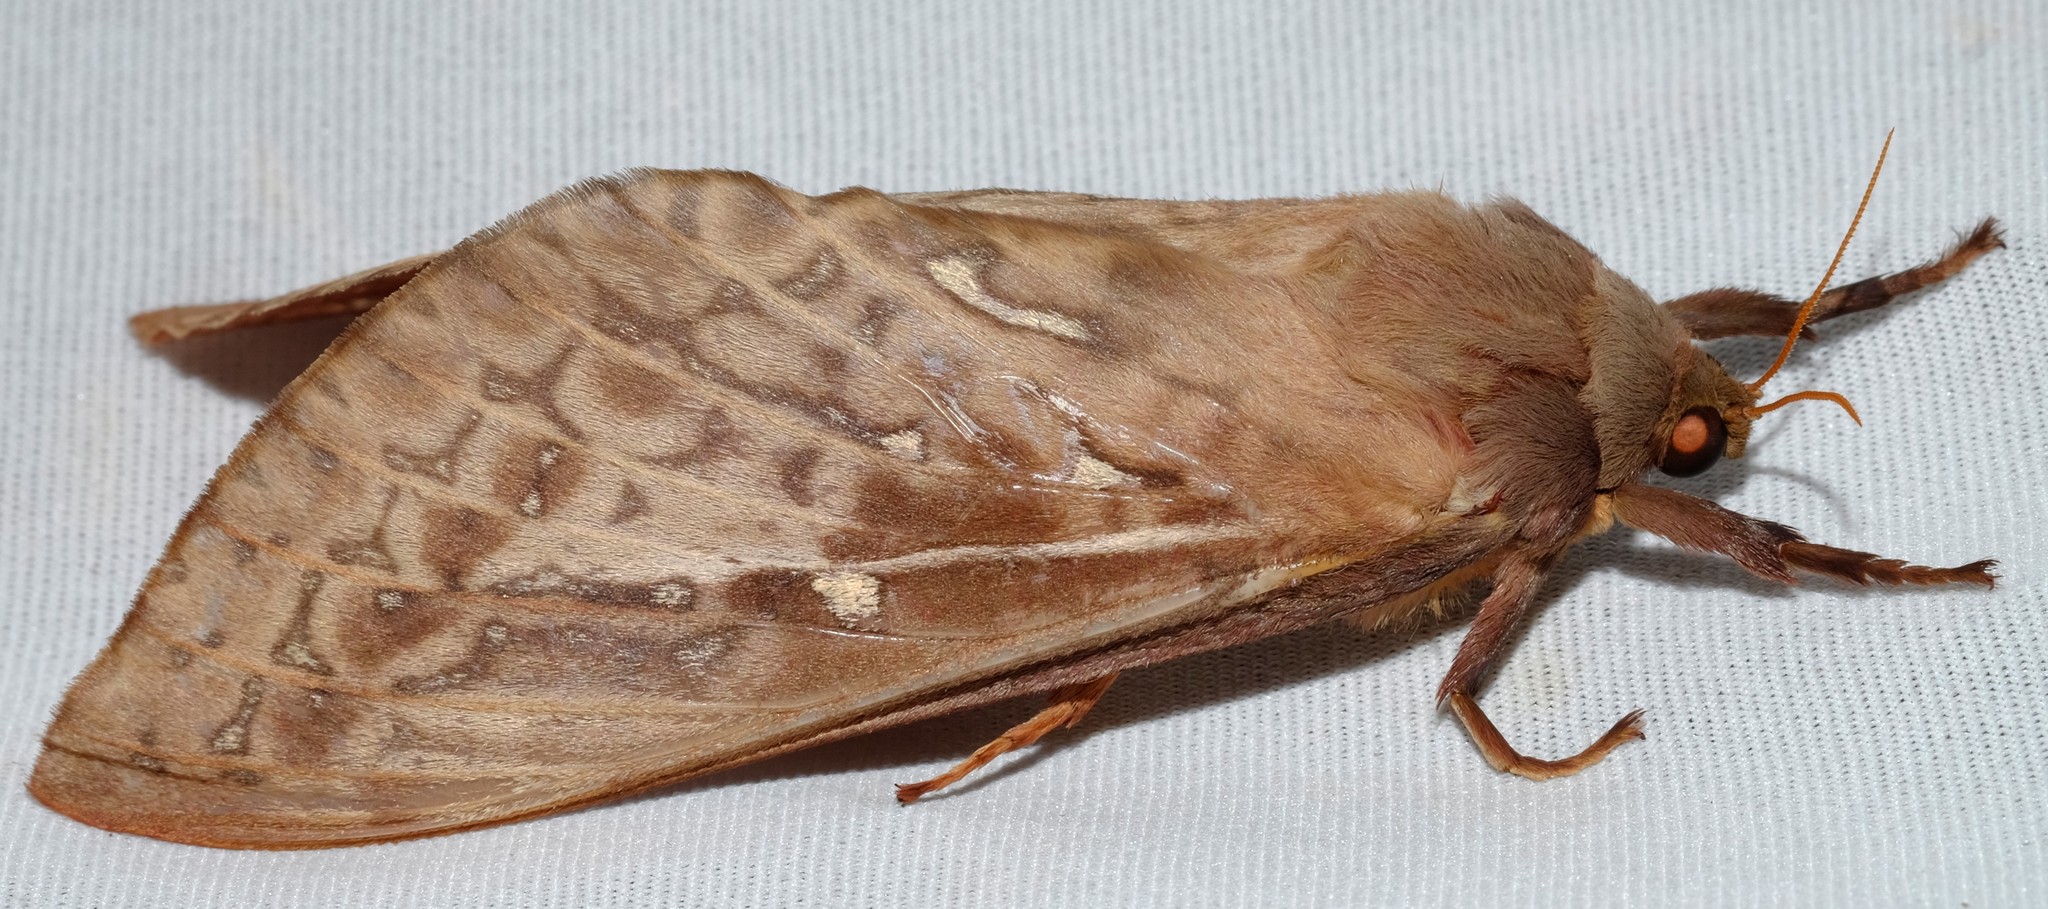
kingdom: Animalia
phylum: Arthropoda
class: Insecta
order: Lepidoptera
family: Hepialidae
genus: Oxycanus
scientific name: Oxycanus australis
